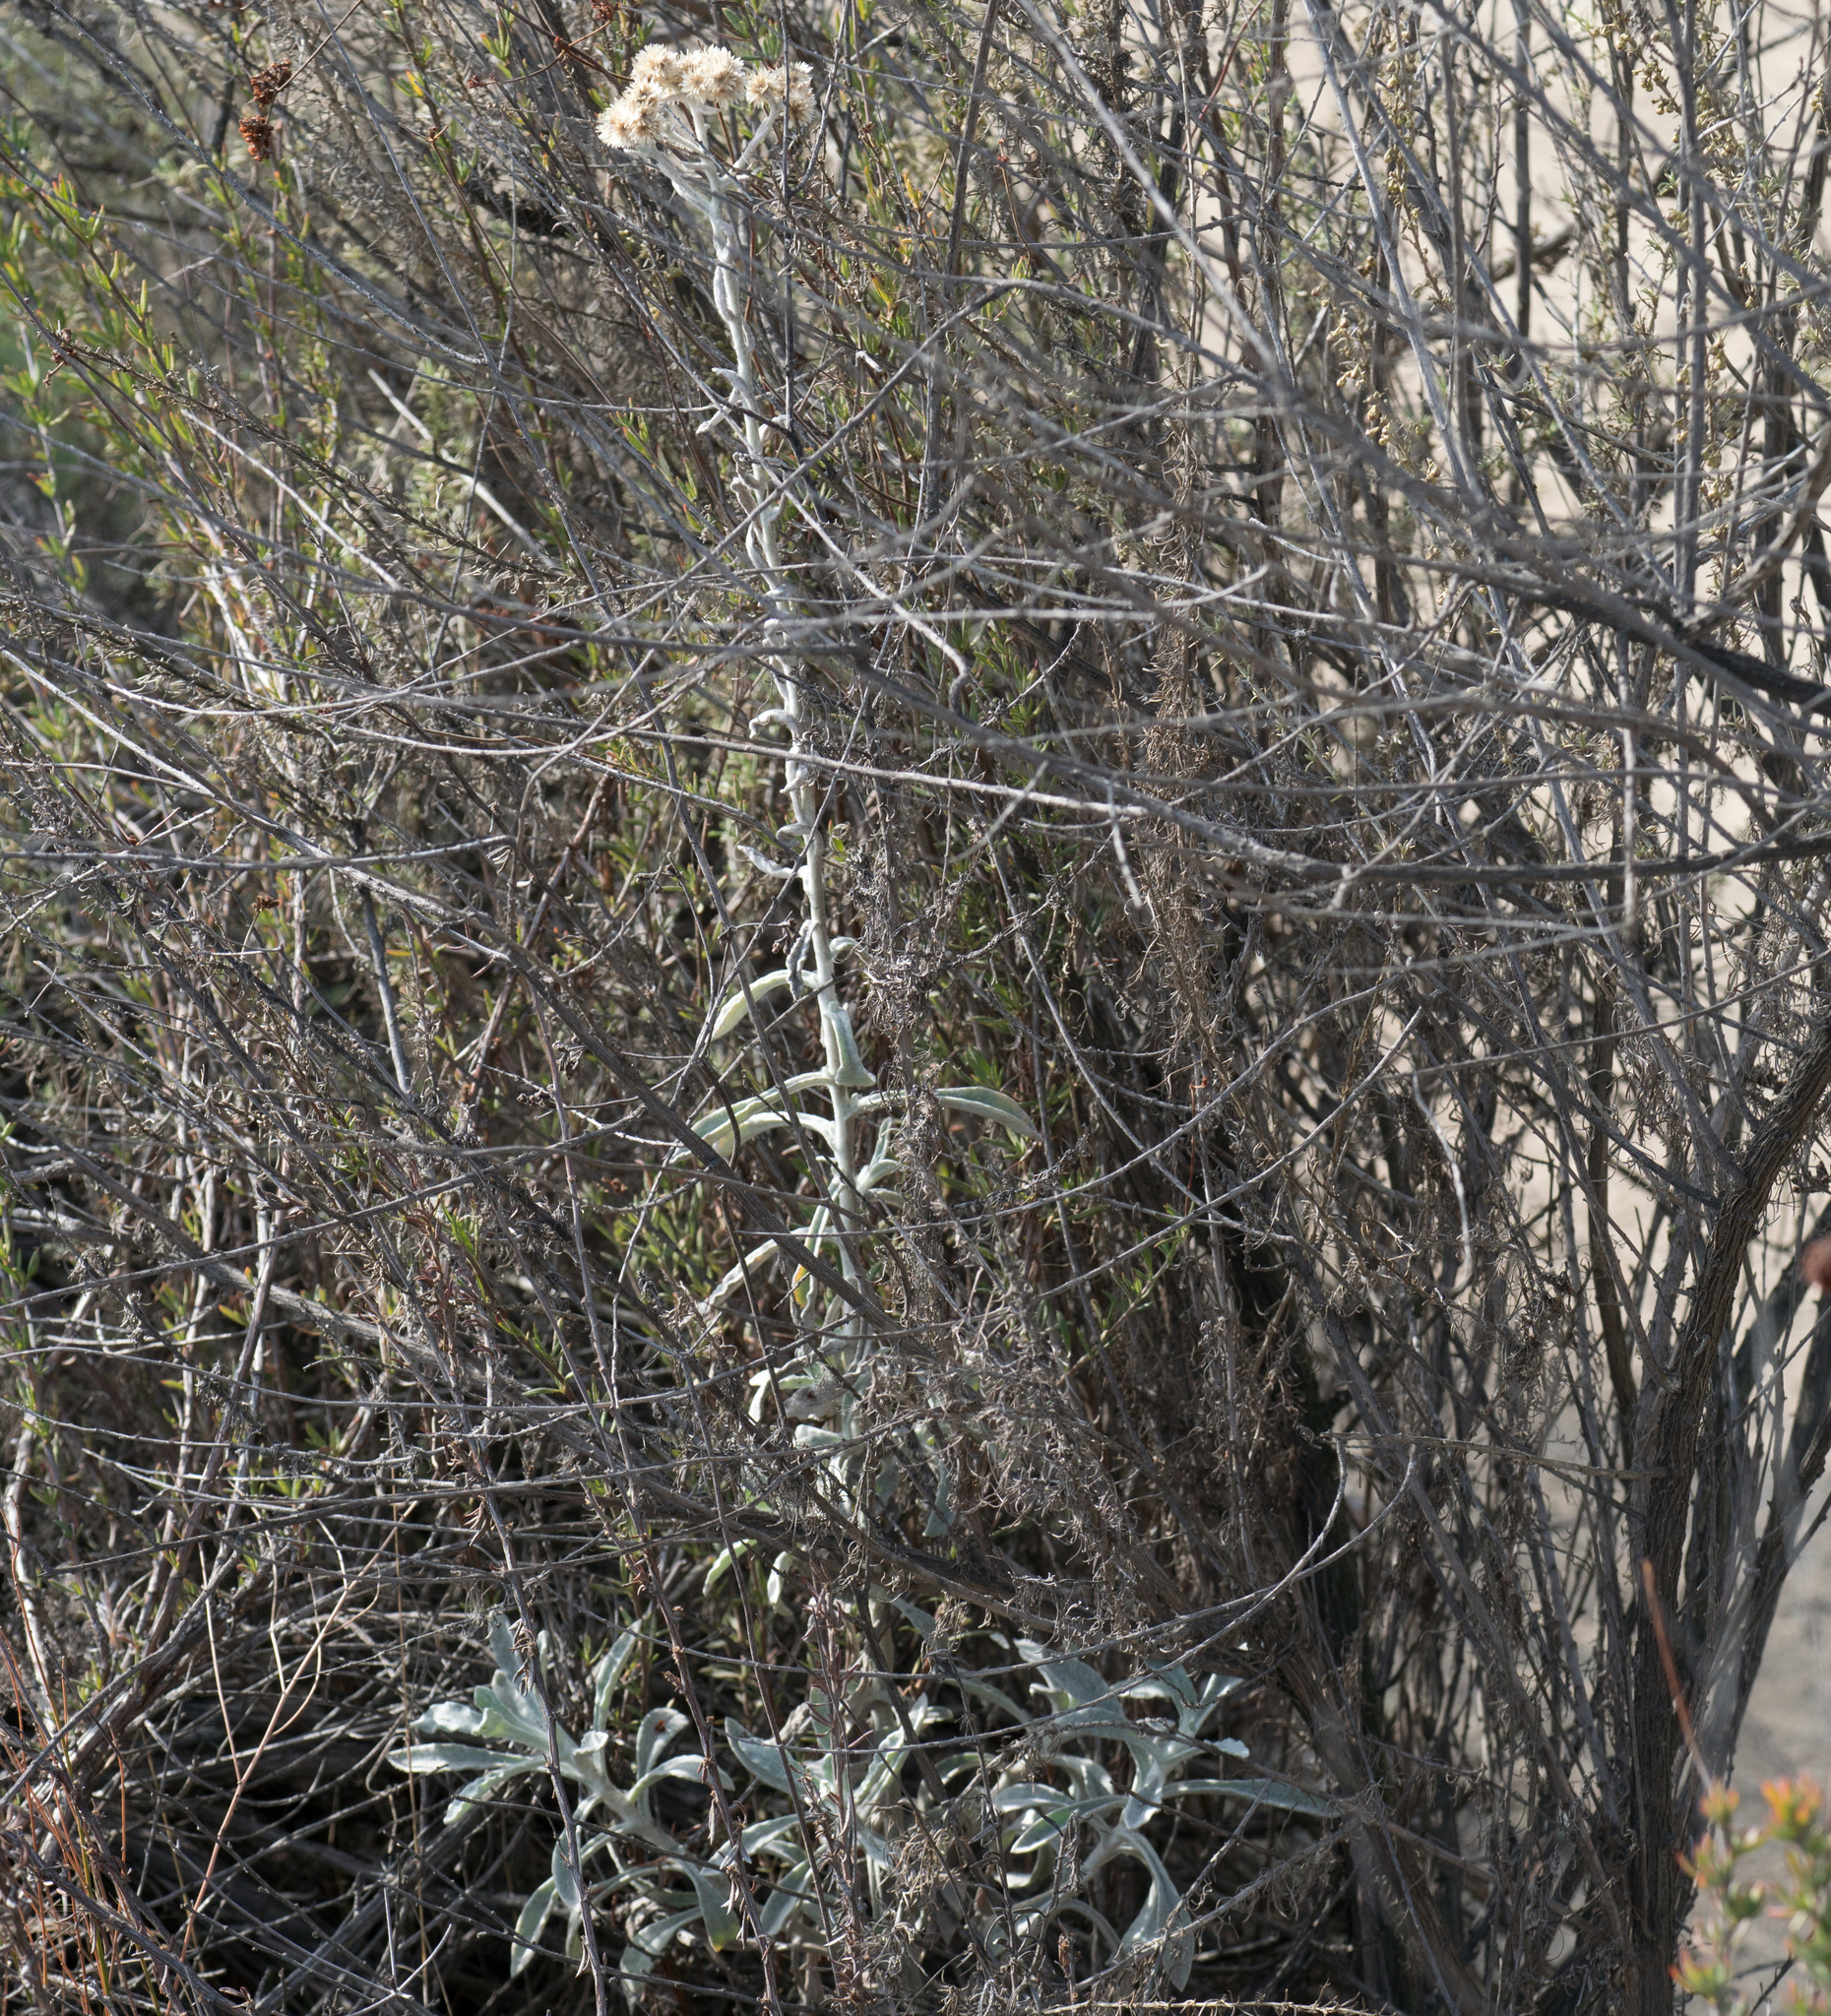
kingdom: Plantae
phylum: Tracheophyta
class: Magnoliopsida
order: Asterales
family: Asteraceae
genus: Pseudognaphalium
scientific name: Pseudognaphalium microcephalum
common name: San diego rabbit-tobacco
